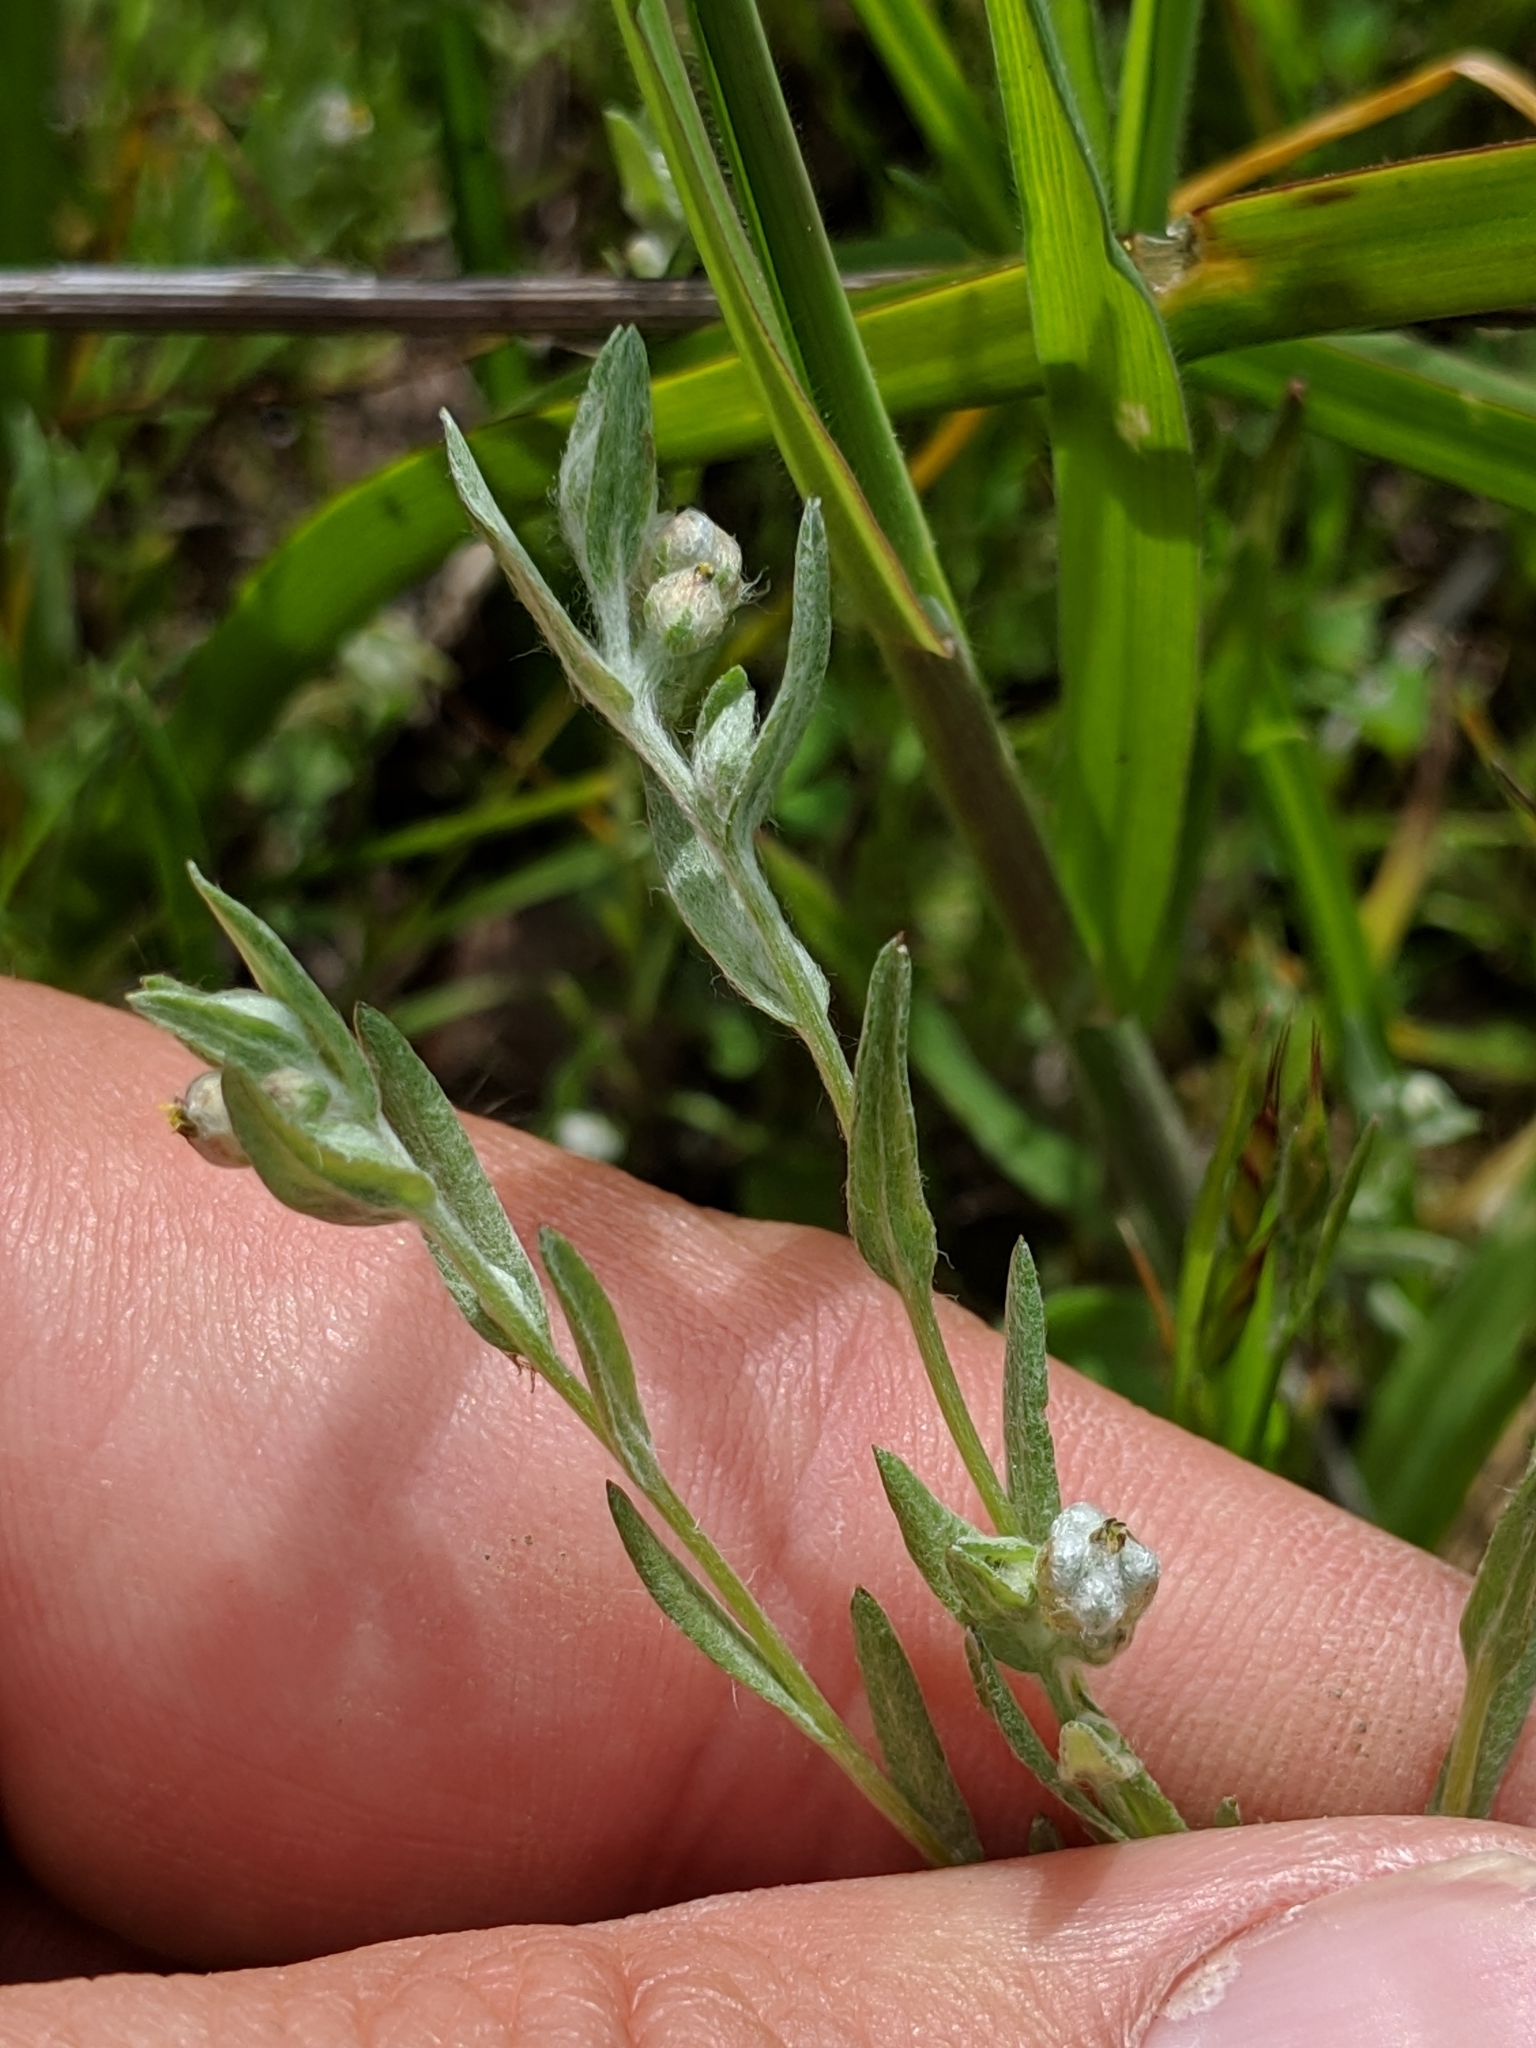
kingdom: Plantae
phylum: Tracheophyta
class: Magnoliopsida
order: Asterales
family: Asteraceae
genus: Bombycilaena
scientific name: Bombycilaena californica
